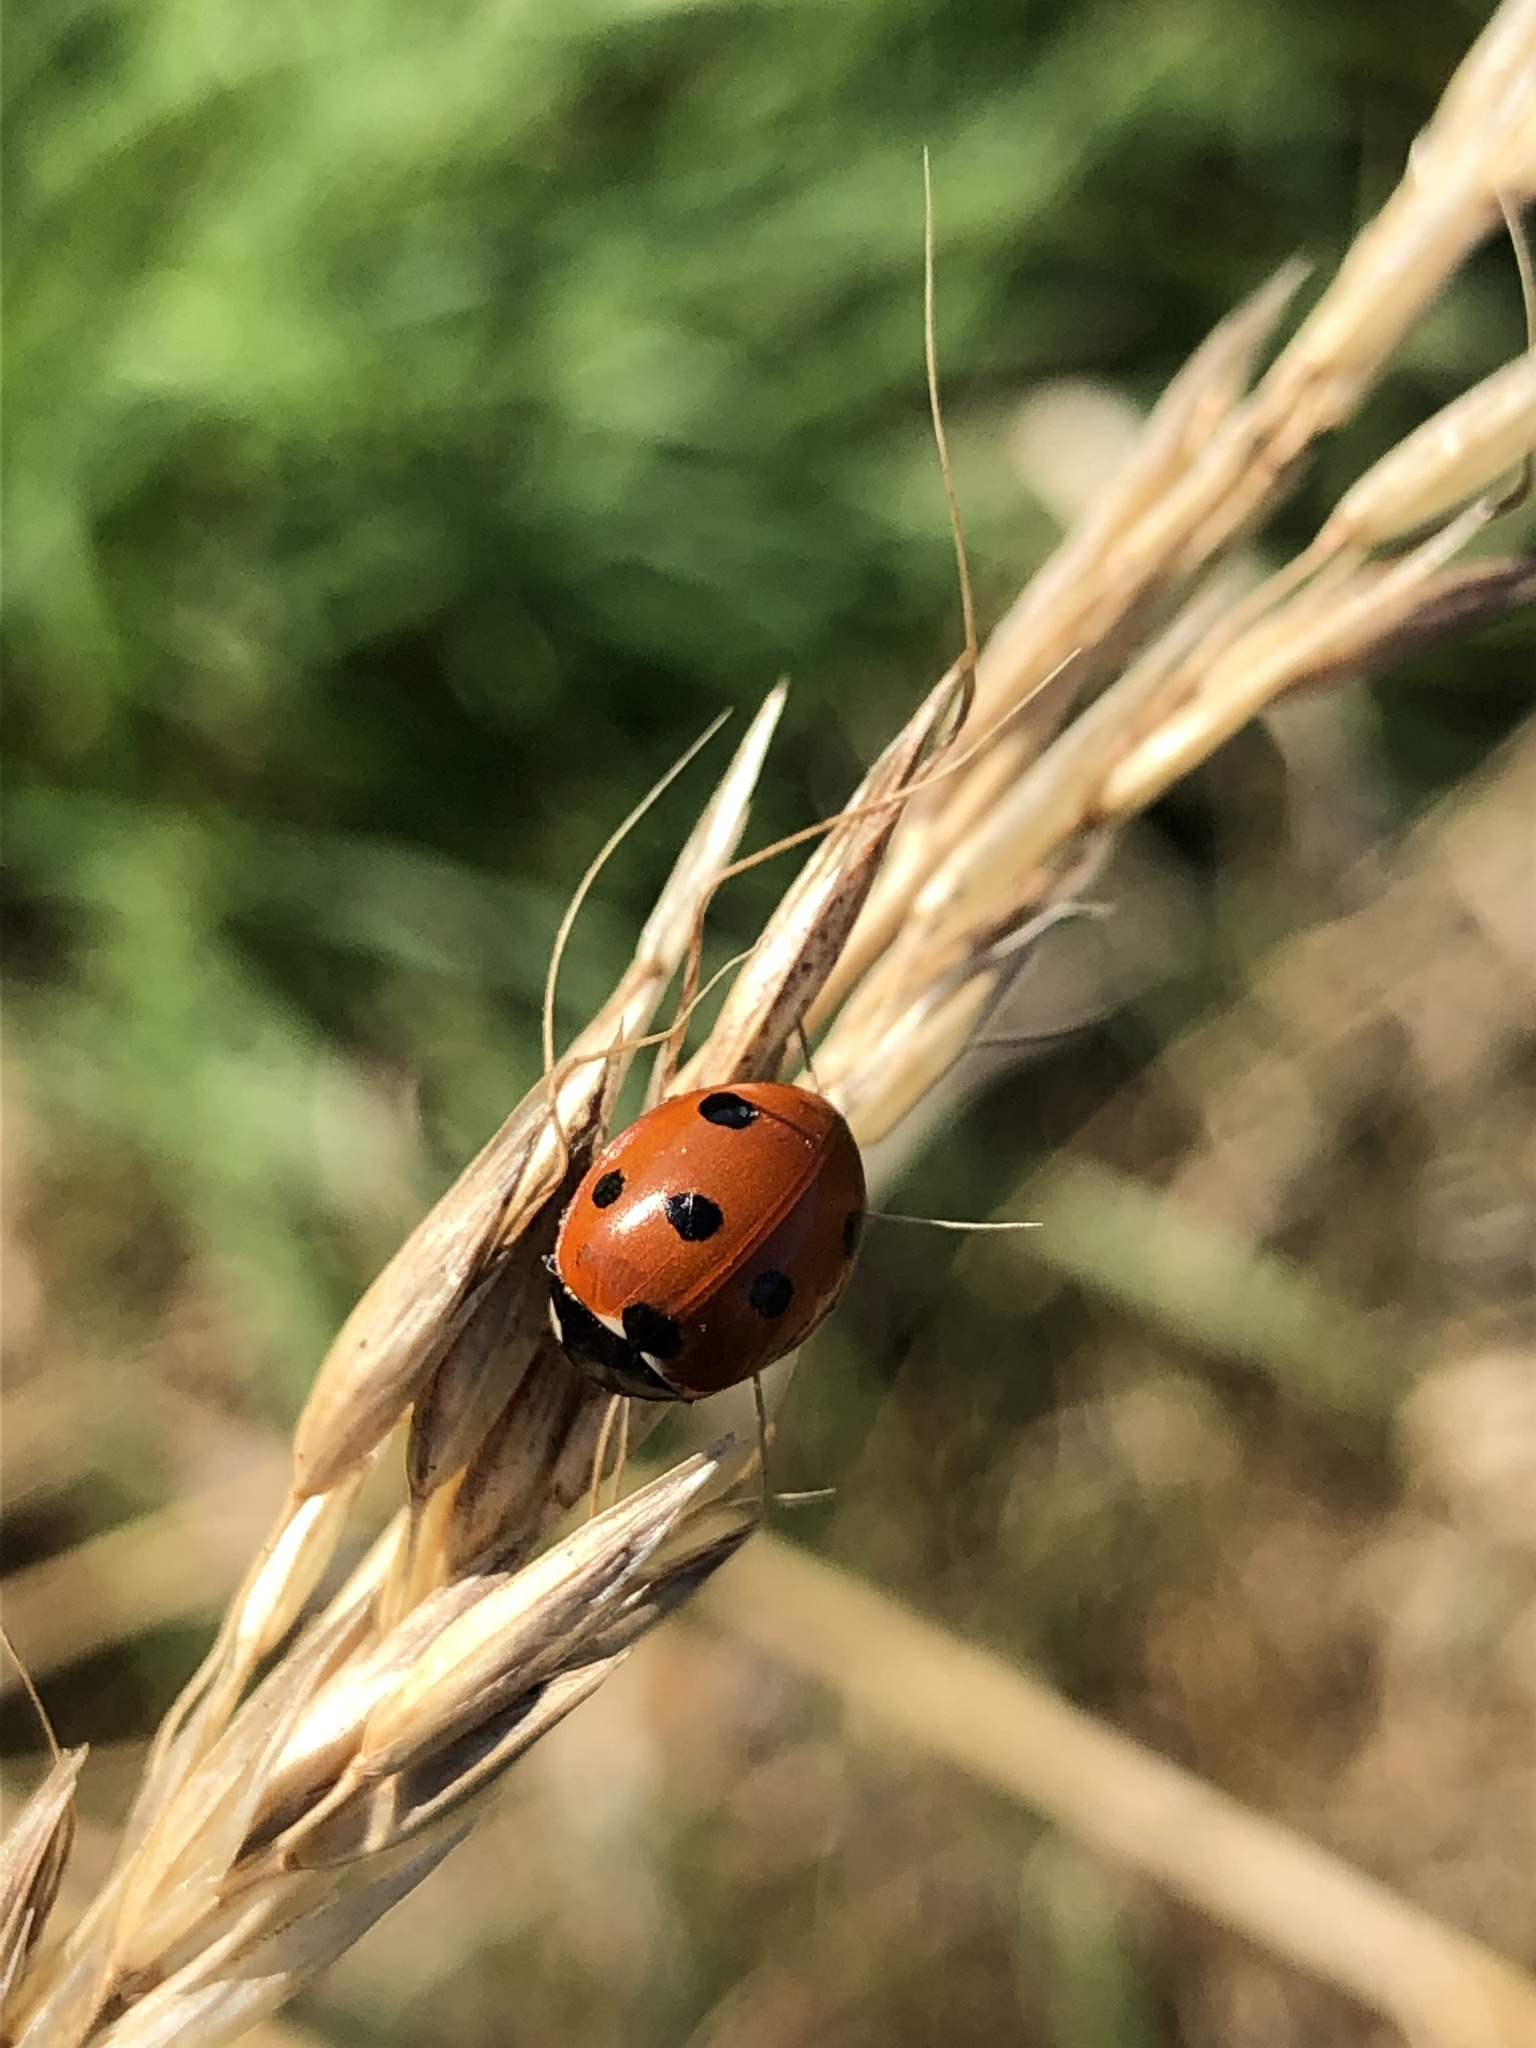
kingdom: Animalia
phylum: Arthropoda
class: Insecta
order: Coleoptera
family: Coccinellidae
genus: Coccinella
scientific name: Coccinella septempunctata
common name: Sevenspotted lady beetle
